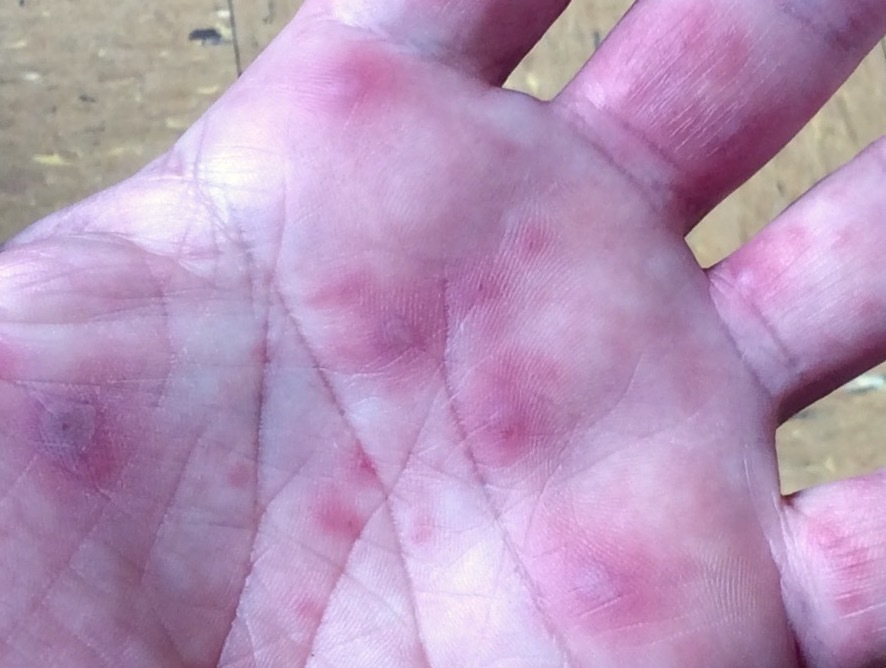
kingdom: Viruses
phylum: Pisuviricota
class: Pisoniviricetes
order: Picornavirales
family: Picornaviridae
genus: Enterovirus
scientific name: Enterovirus A
